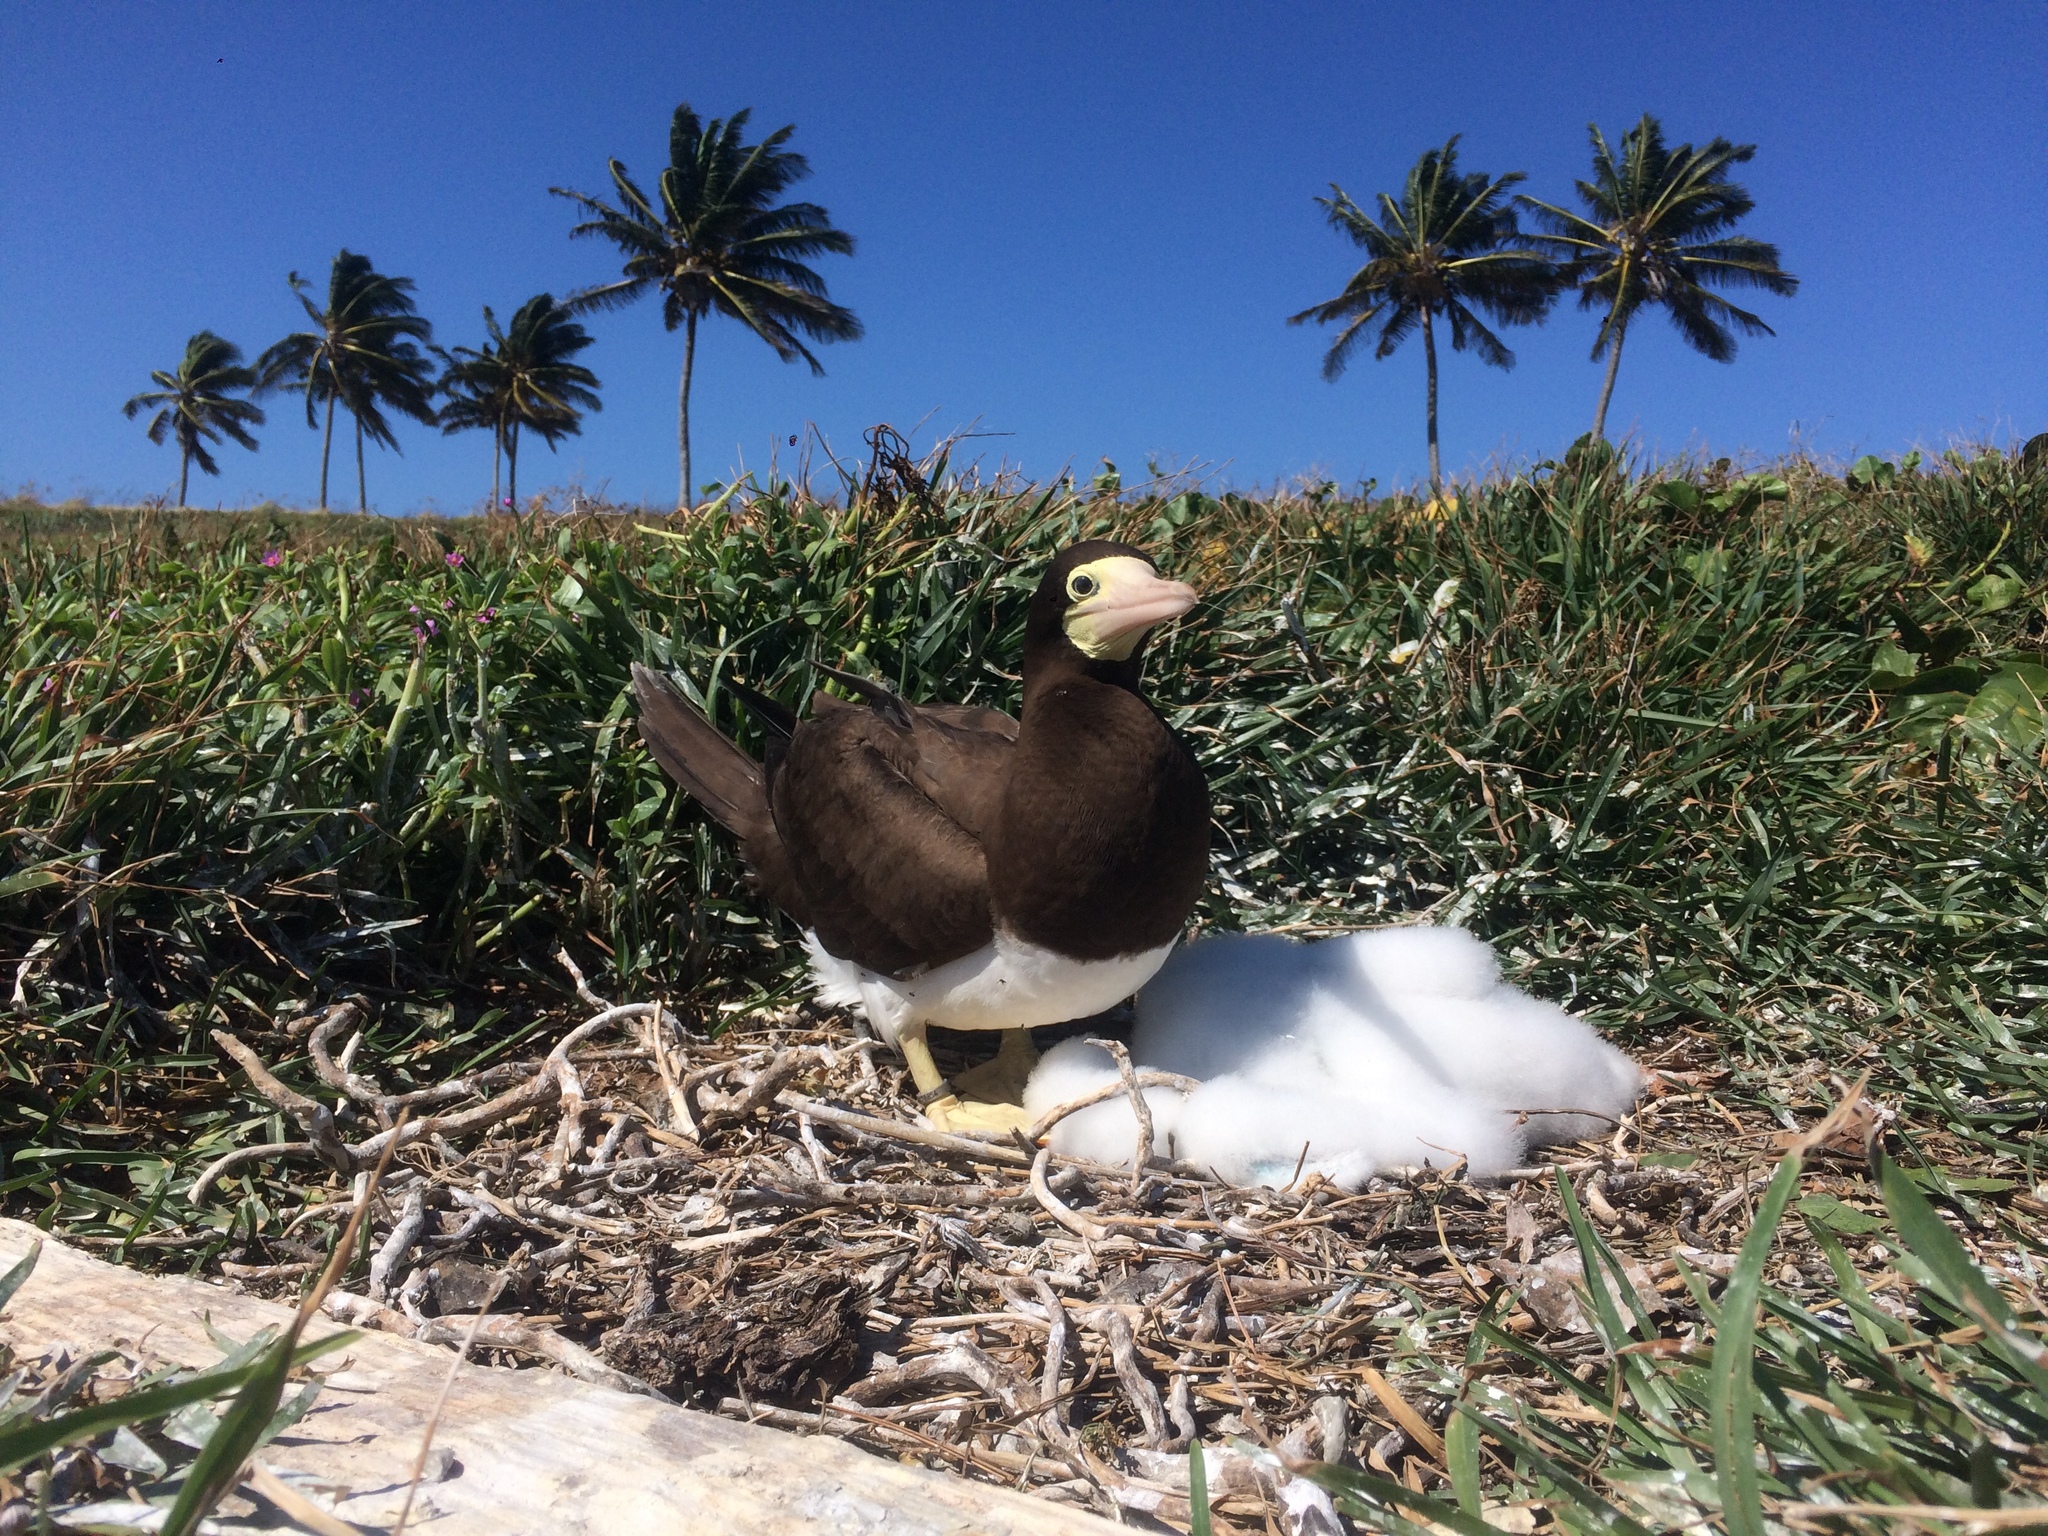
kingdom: Animalia
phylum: Chordata
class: Aves
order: Suliformes
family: Sulidae
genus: Sula
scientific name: Sula leucogaster
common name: Brown booby
